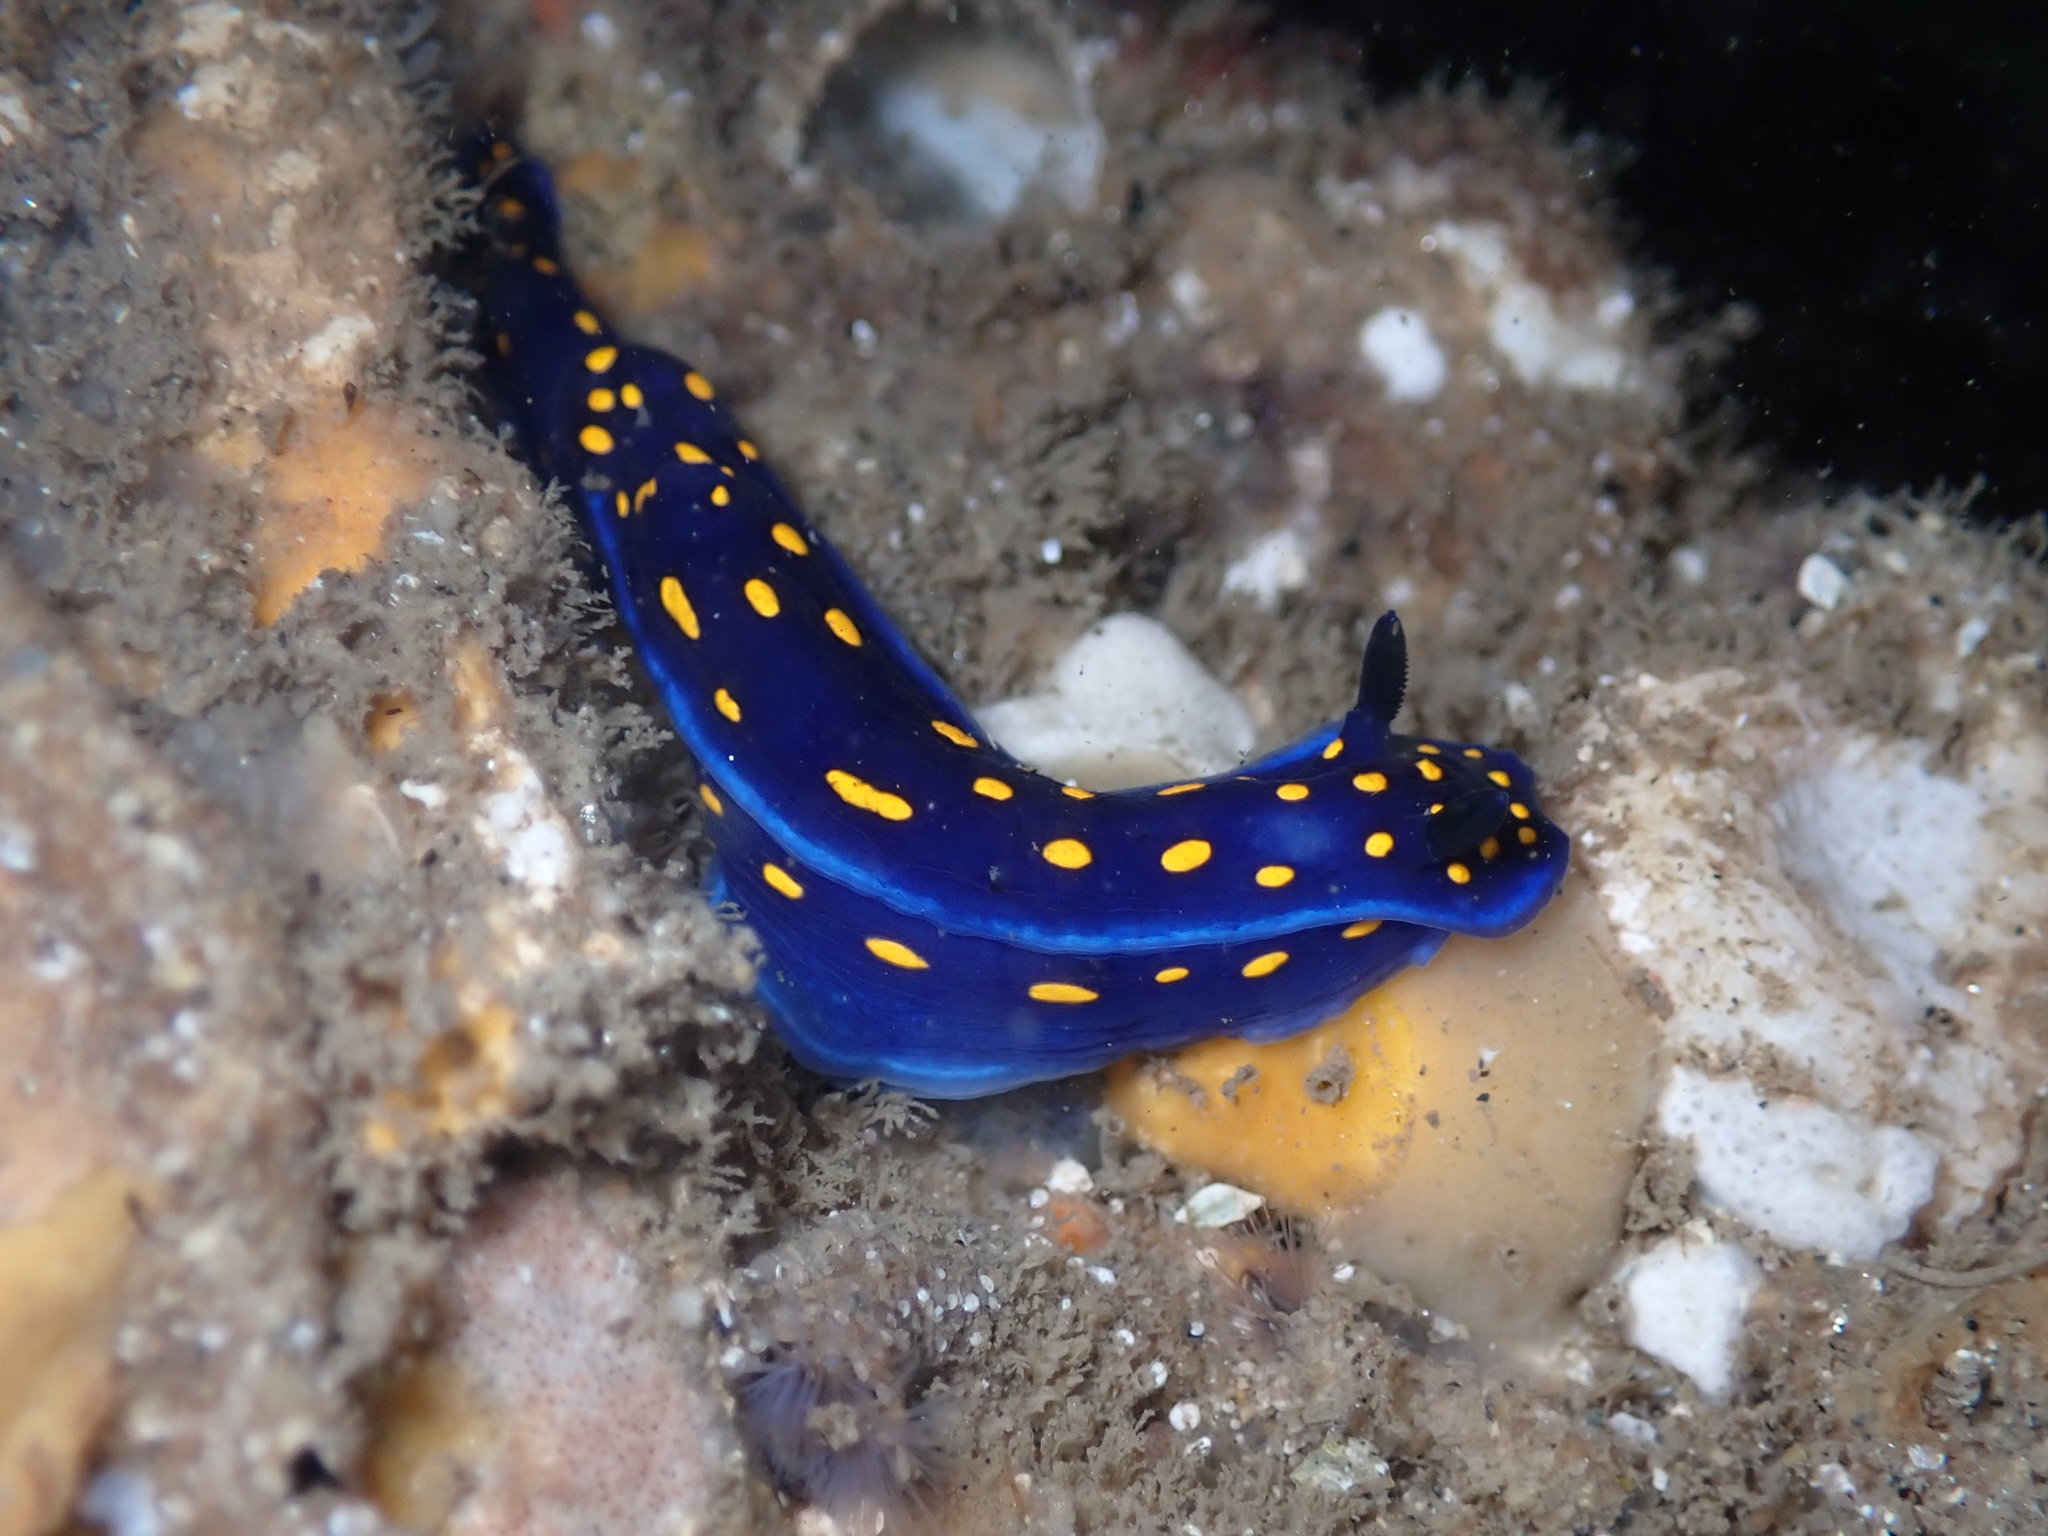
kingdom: Animalia
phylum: Mollusca
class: Gastropoda
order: Nudibranchia
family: Chromodorididae
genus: Felimare
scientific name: Felimare californiensis
